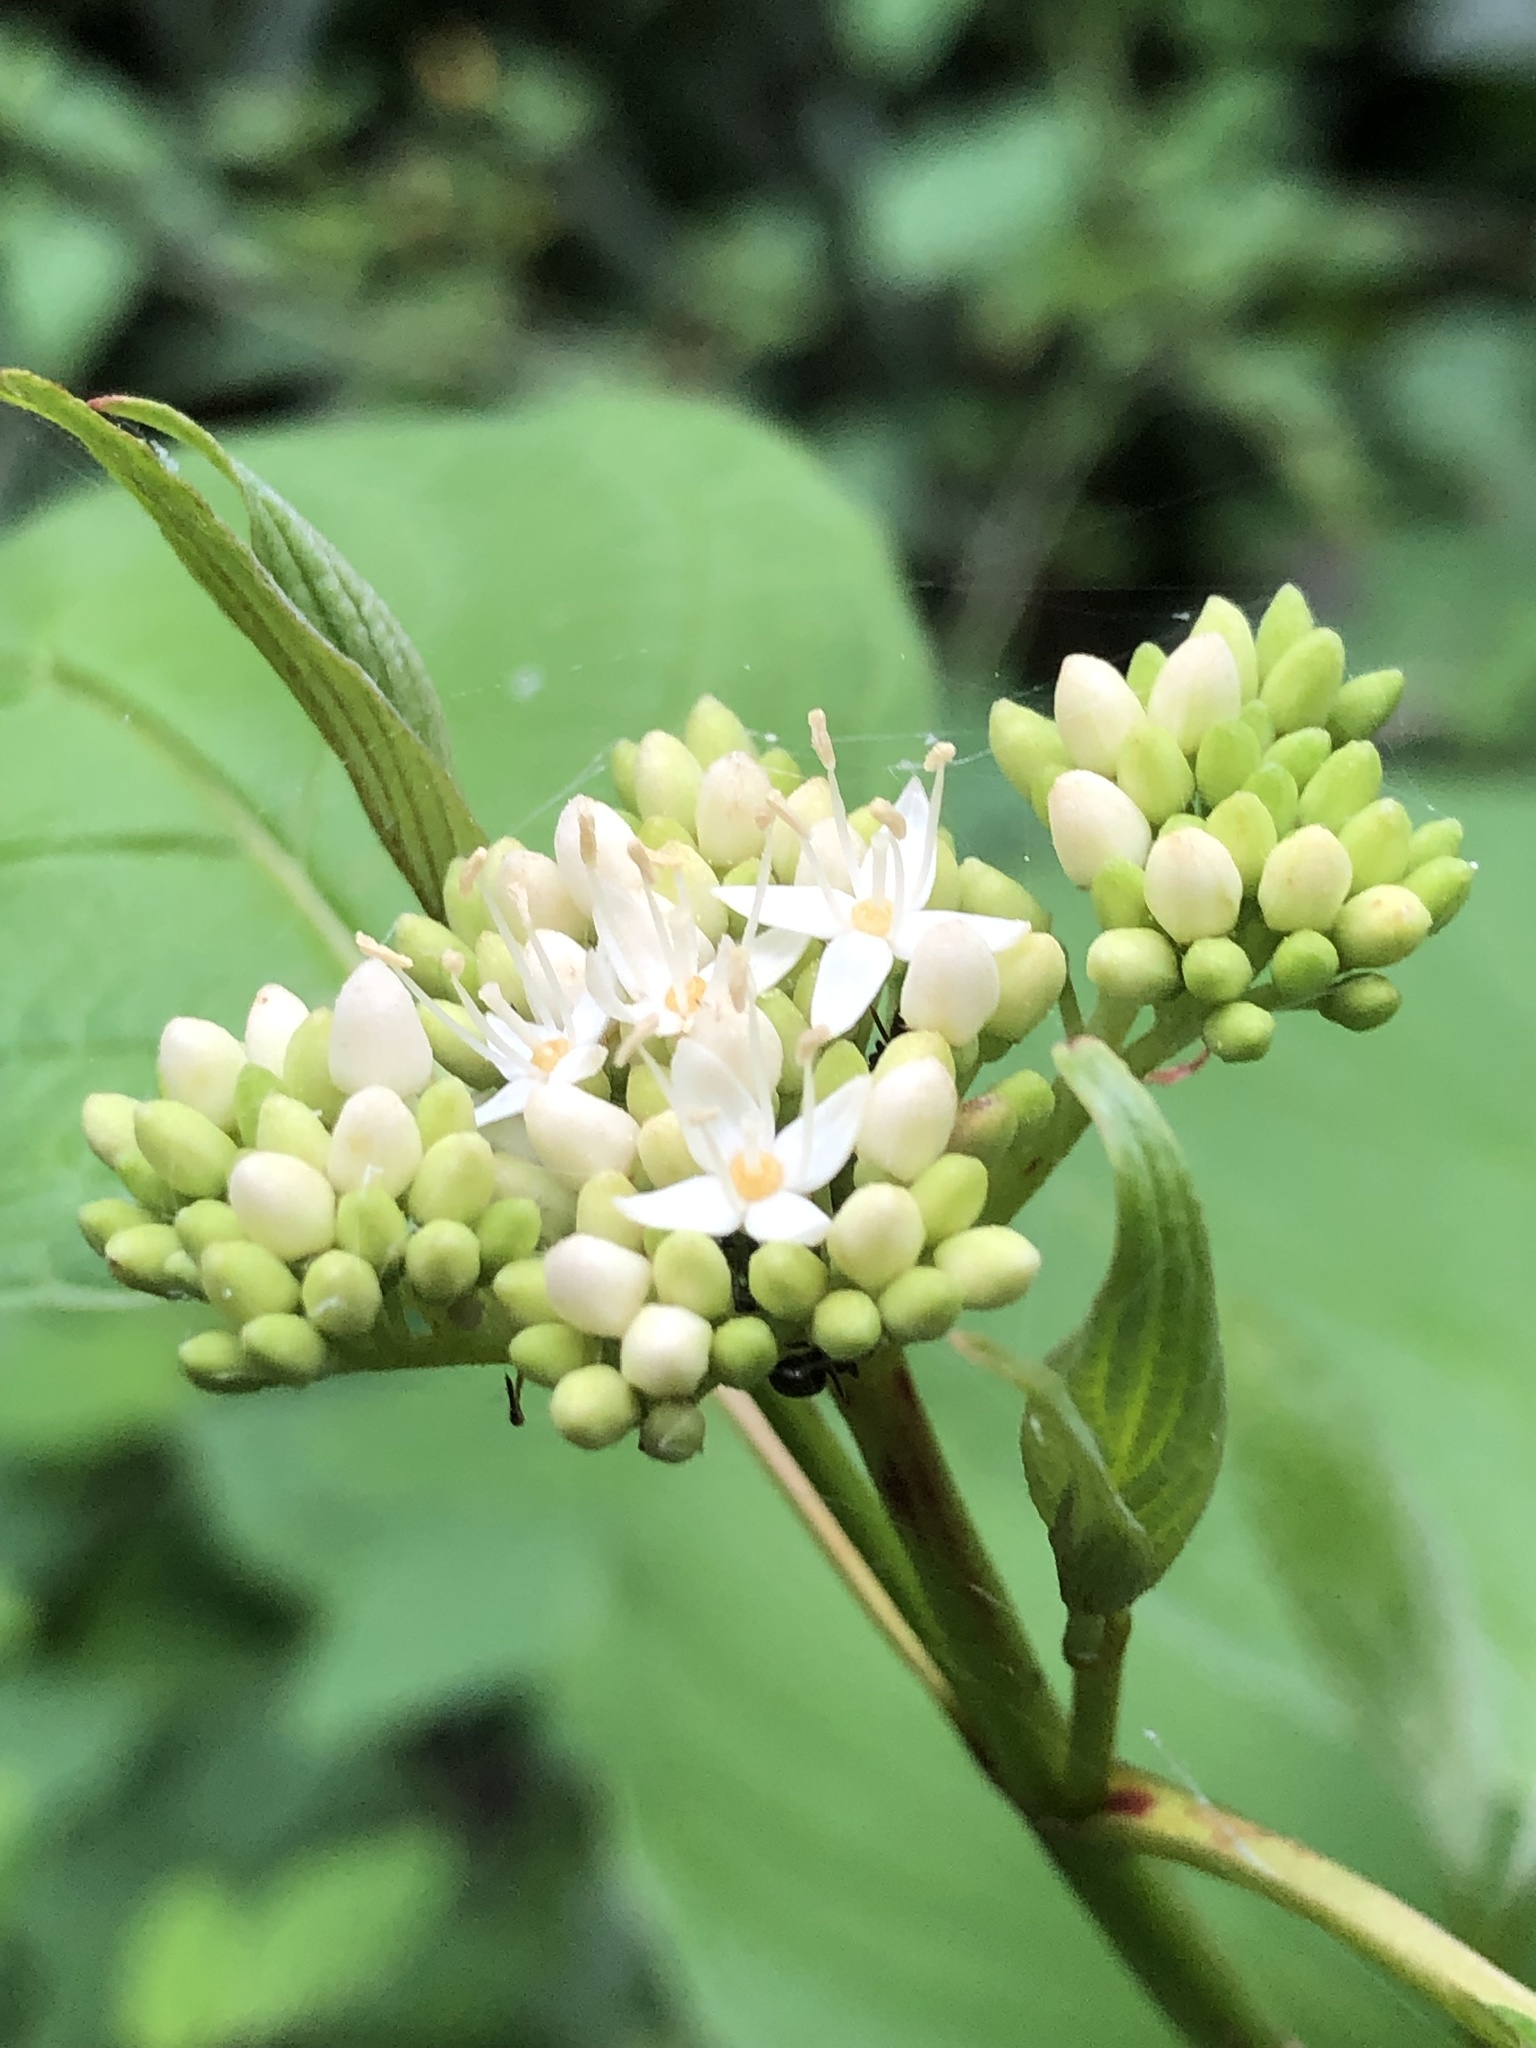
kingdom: Plantae
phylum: Tracheophyta
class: Magnoliopsida
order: Cornales
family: Cornaceae
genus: Cornus
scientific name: Cornus sericea
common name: Red-osier dogwood
